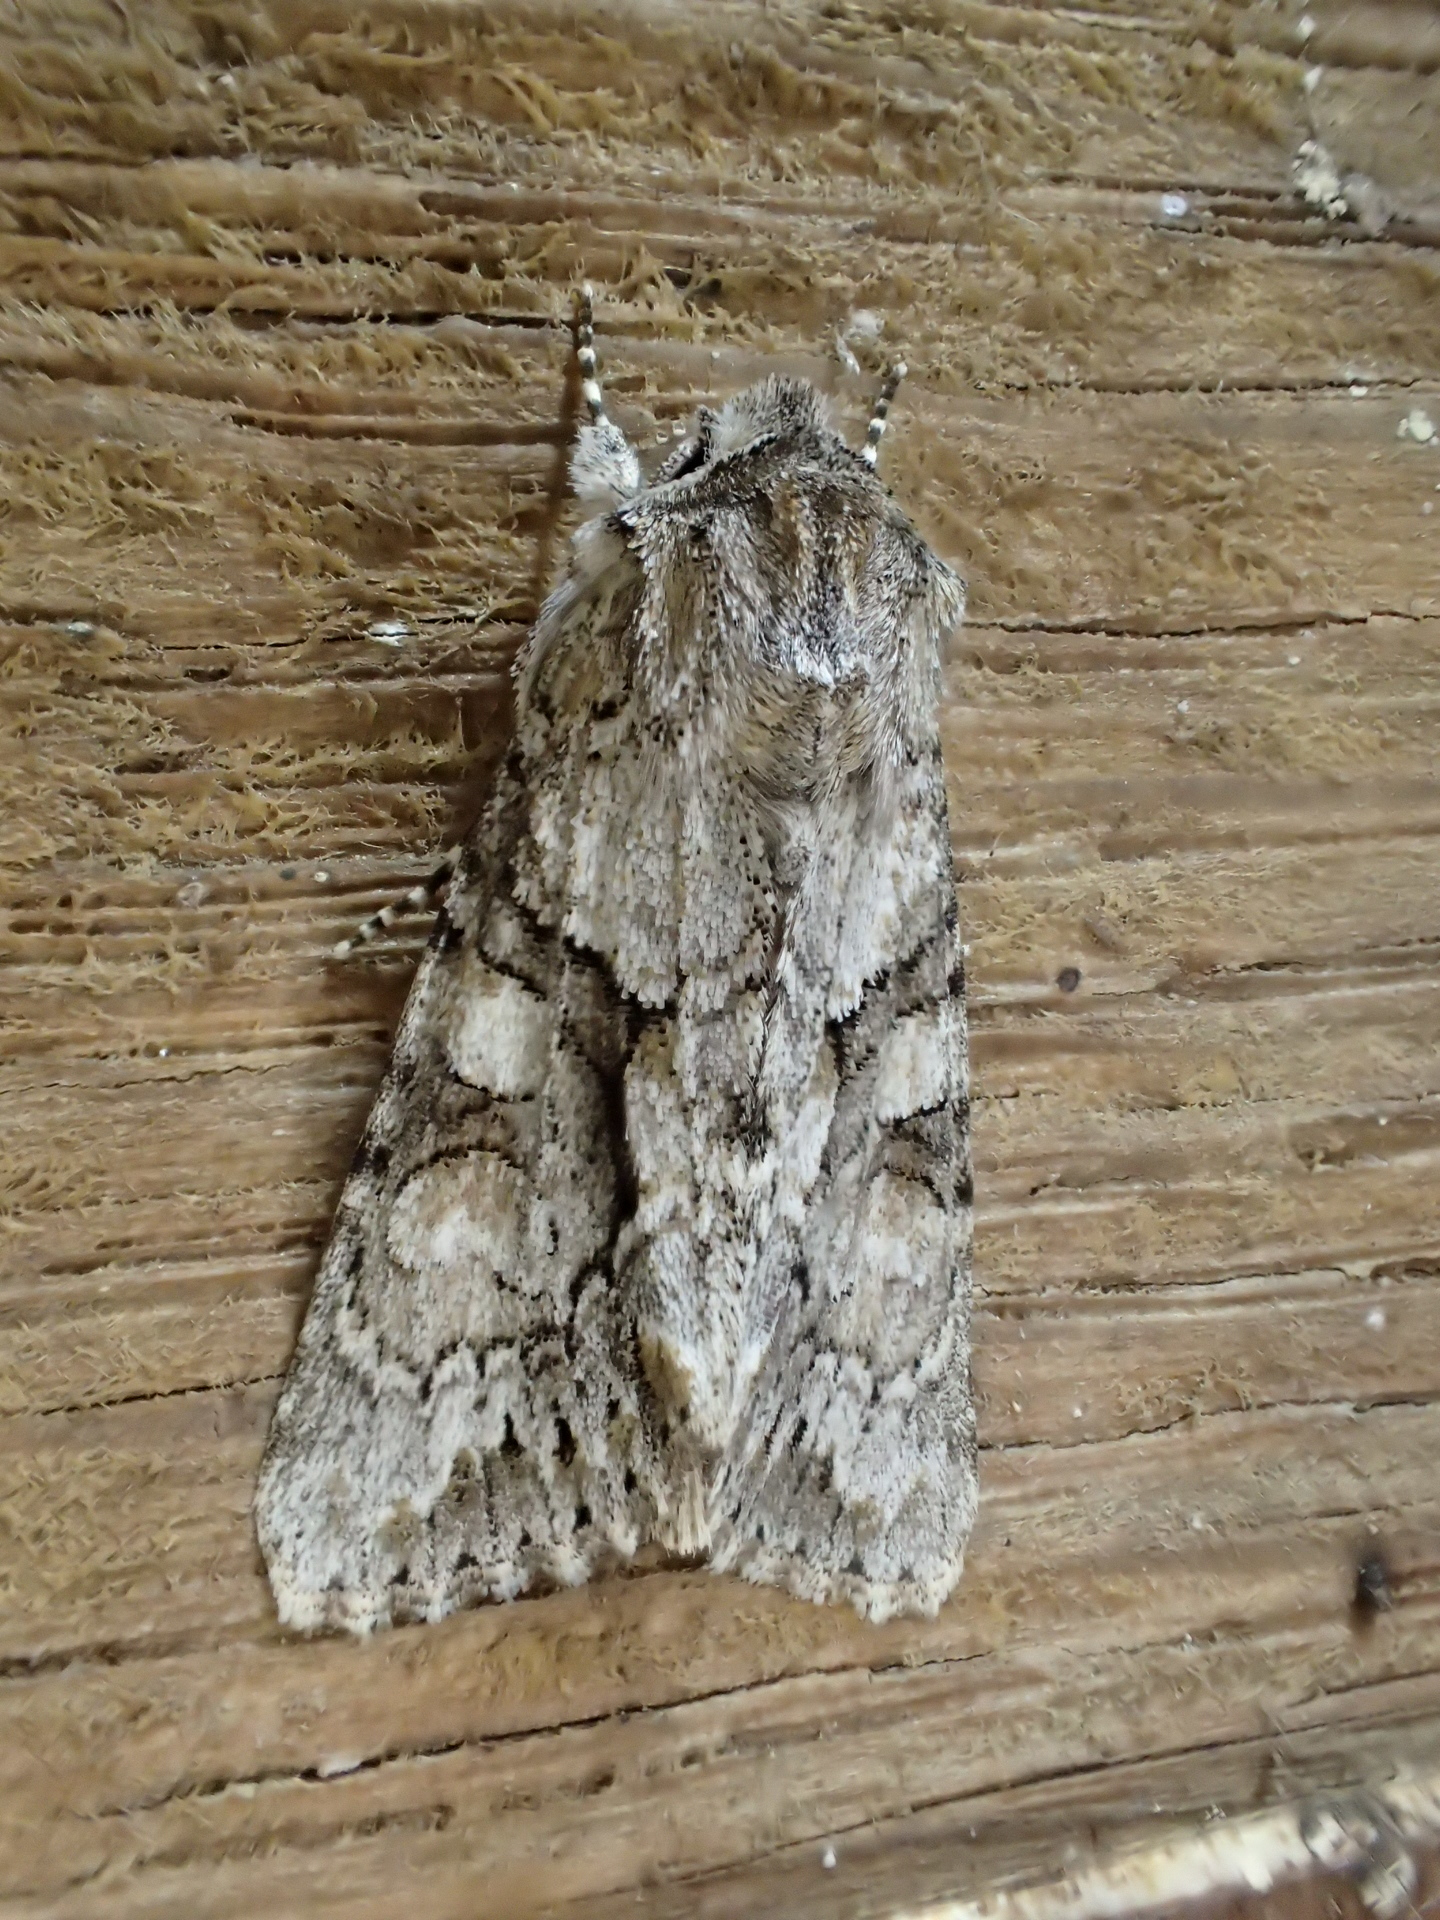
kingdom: Animalia
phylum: Arthropoda
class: Insecta
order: Lepidoptera
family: Noctuidae
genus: Achatia
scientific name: Achatia distincta
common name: Distinct quaker
